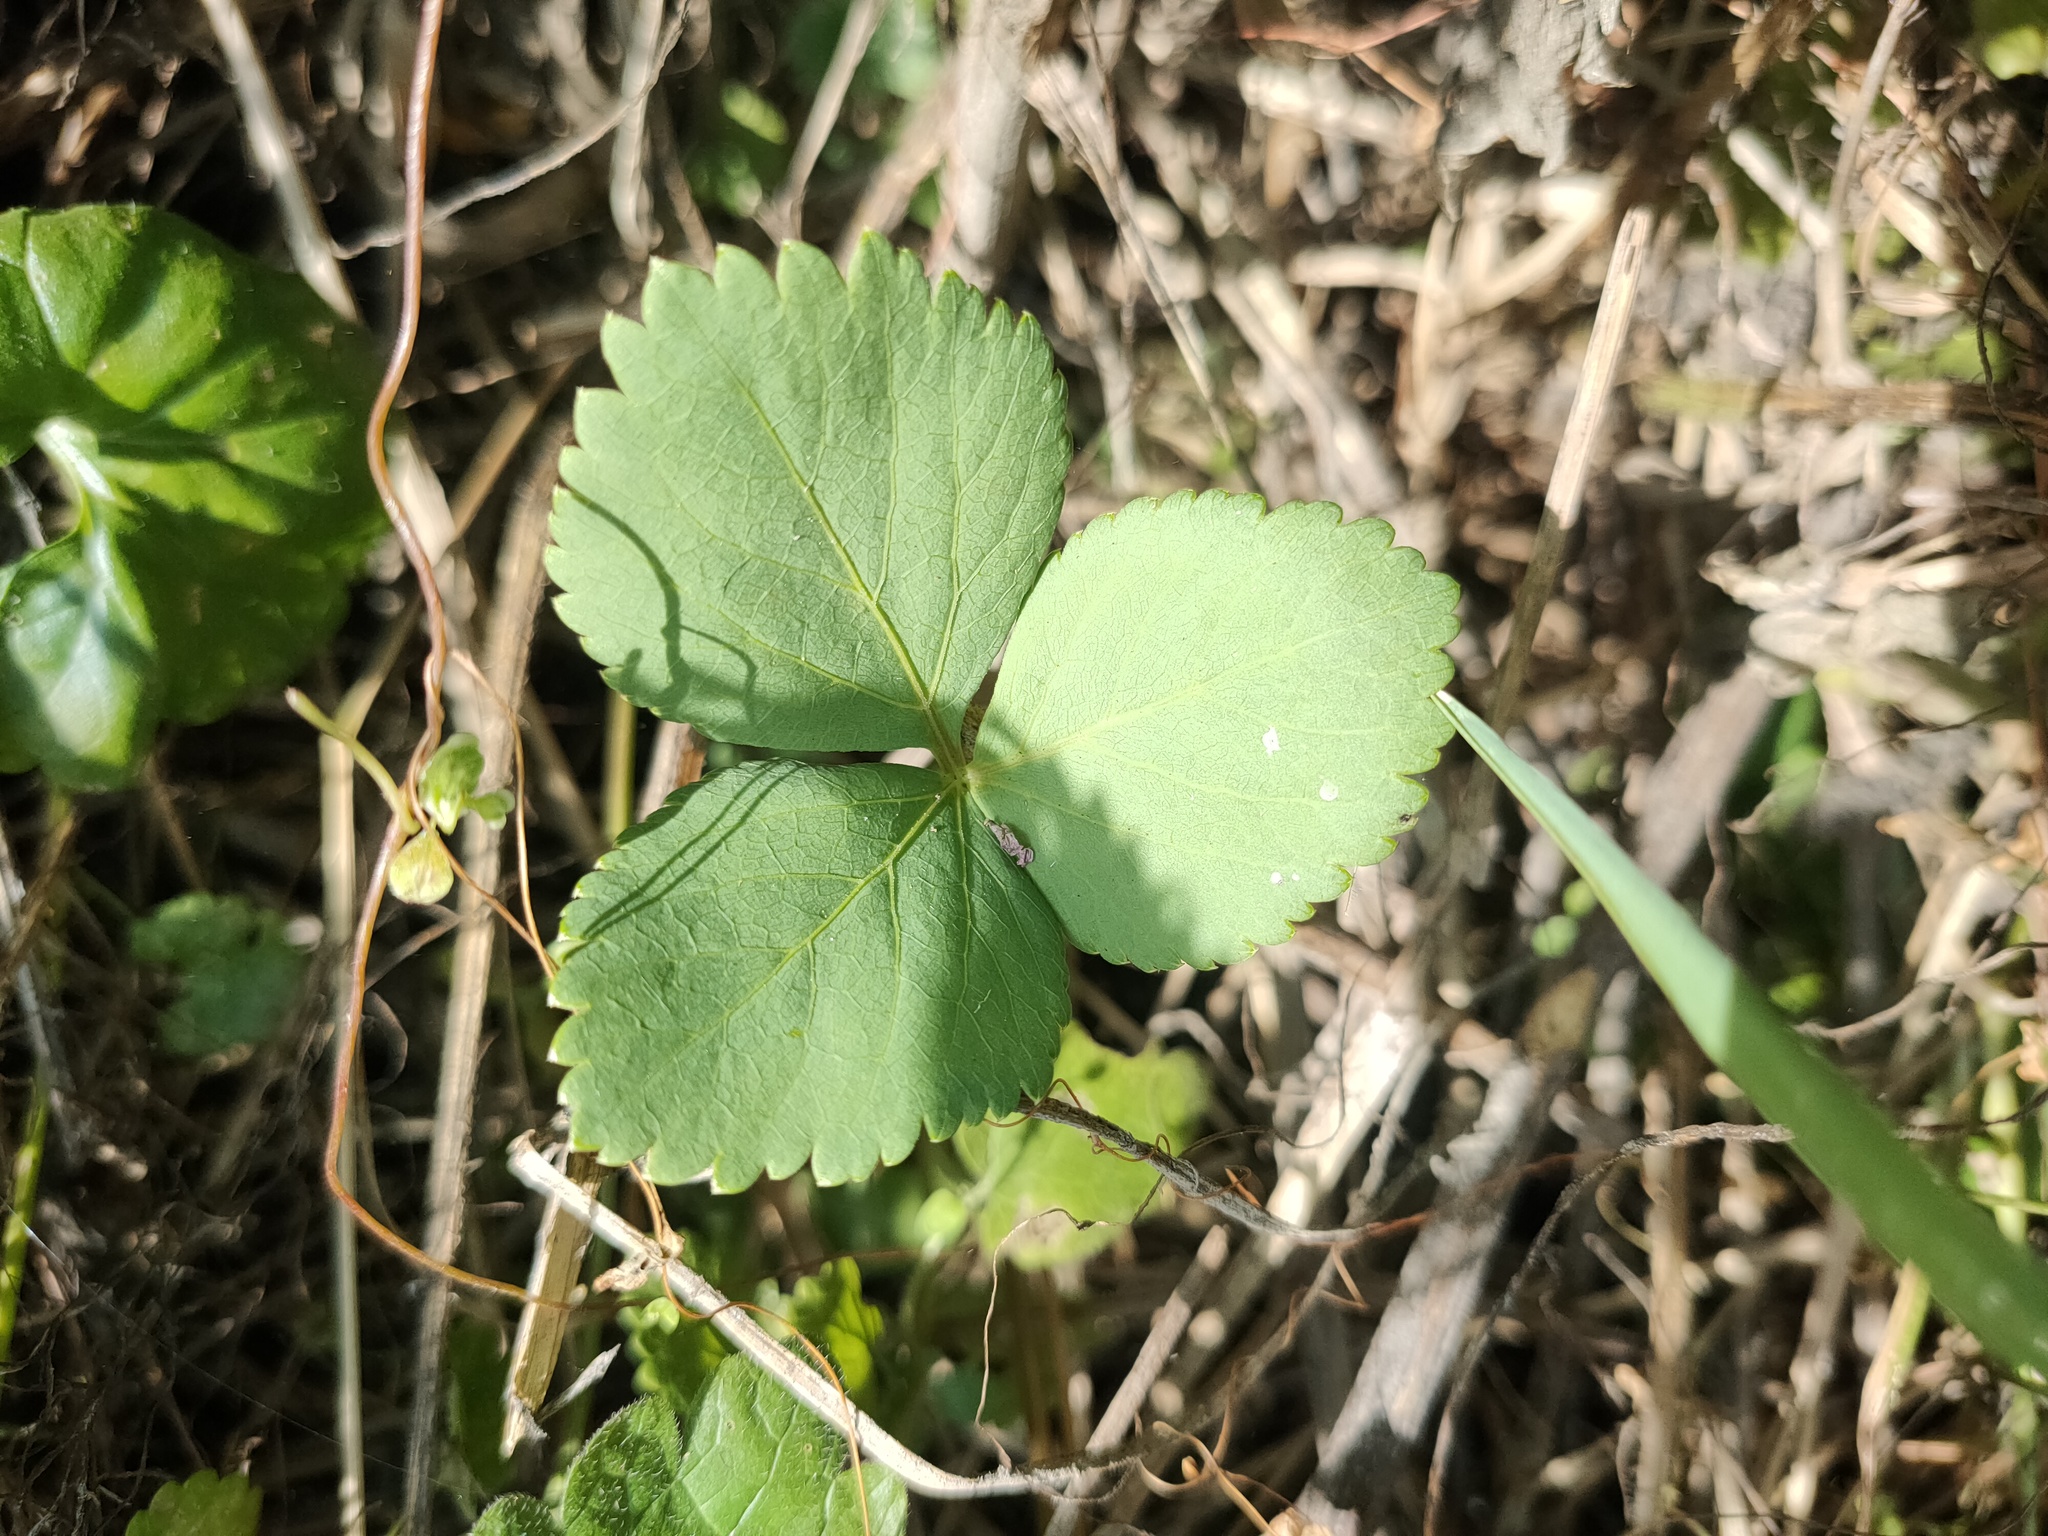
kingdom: Plantae
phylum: Tracheophyta
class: Magnoliopsida
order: Apiales
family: Apiaceae
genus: Aegopodium
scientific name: Aegopodium podagraria
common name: Ground-elder
